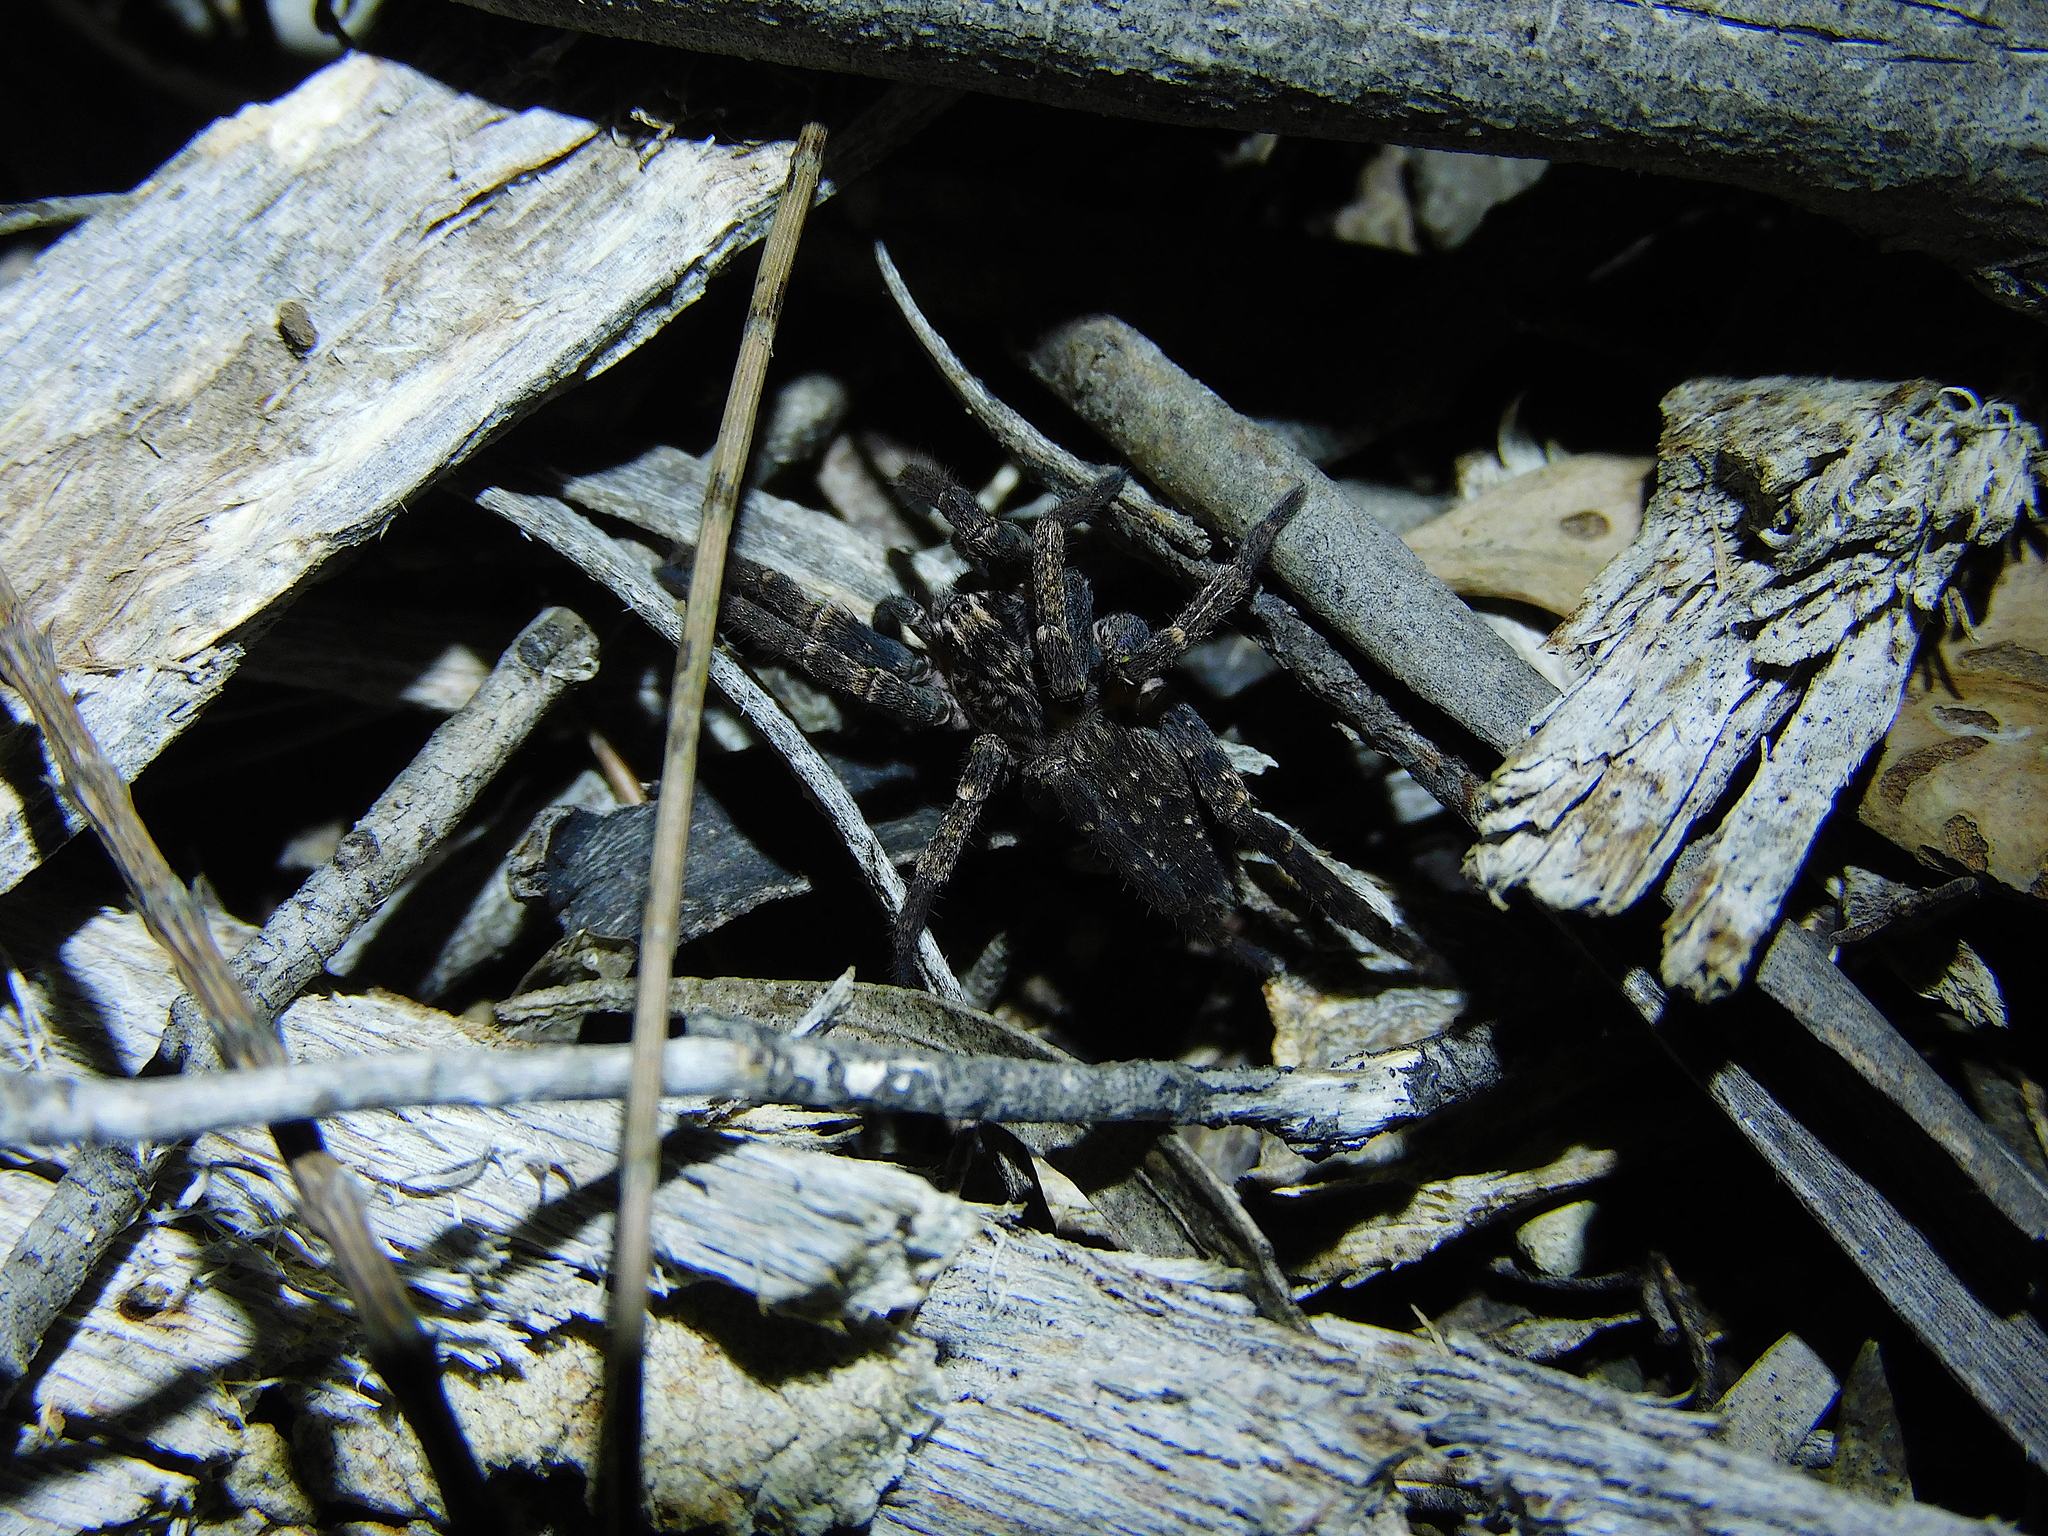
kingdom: Animalia
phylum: Arthropoda
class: Arachnida
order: Araneae
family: Miturgidae
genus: Mituliodon
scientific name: Mituliodon tarantulinus
